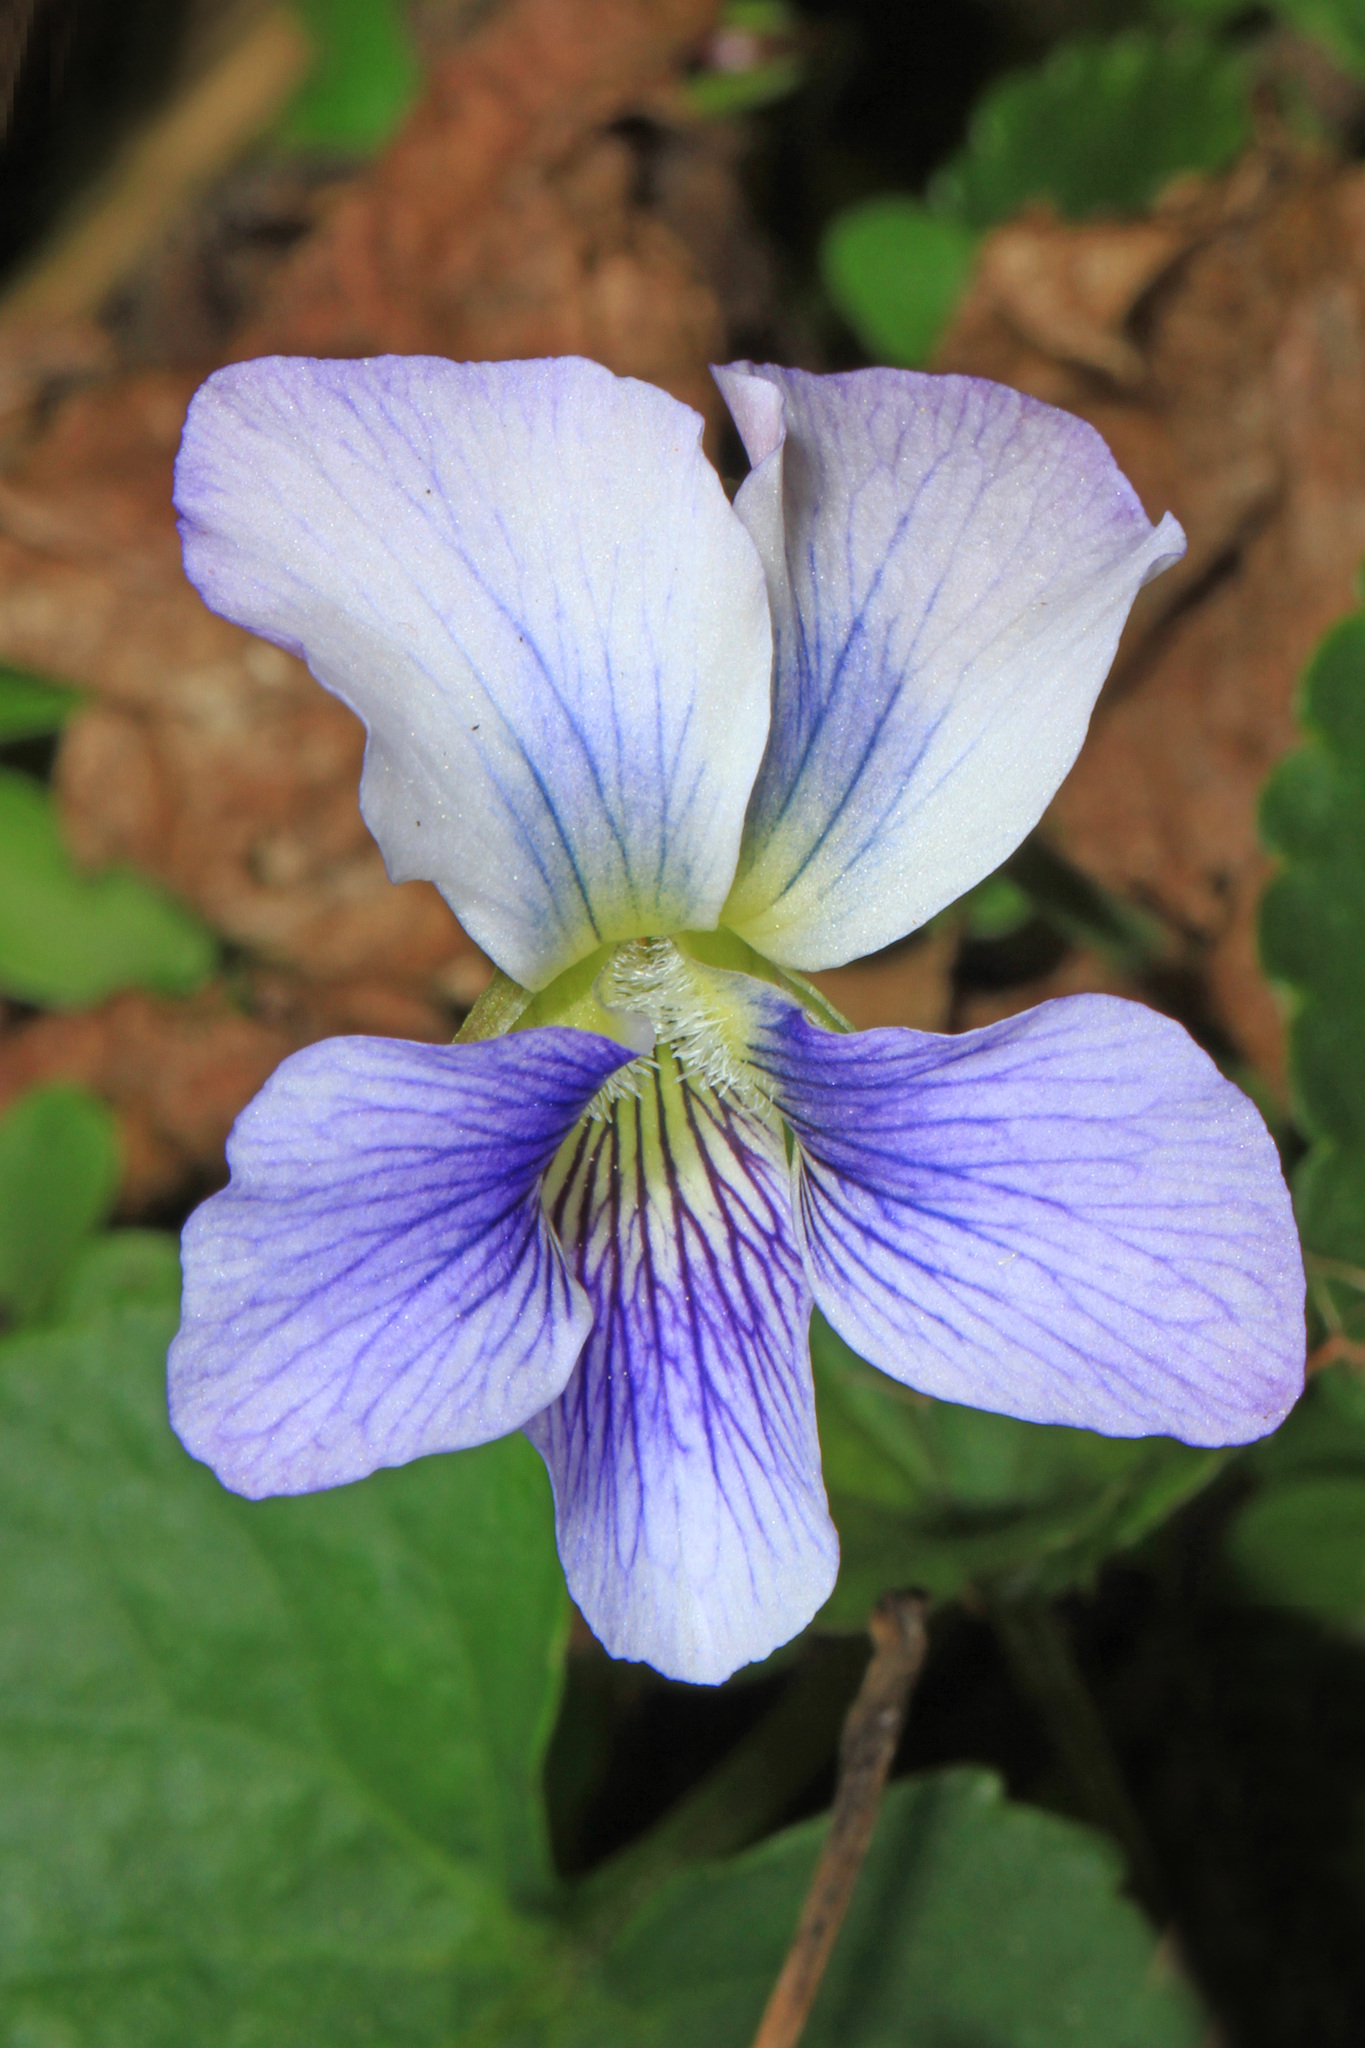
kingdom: Plantae
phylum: Tracheophyta
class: Magnoliopsida
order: Malpighiales
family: Violaceae
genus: Viola
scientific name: Viola sororia
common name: Dooryard violet
